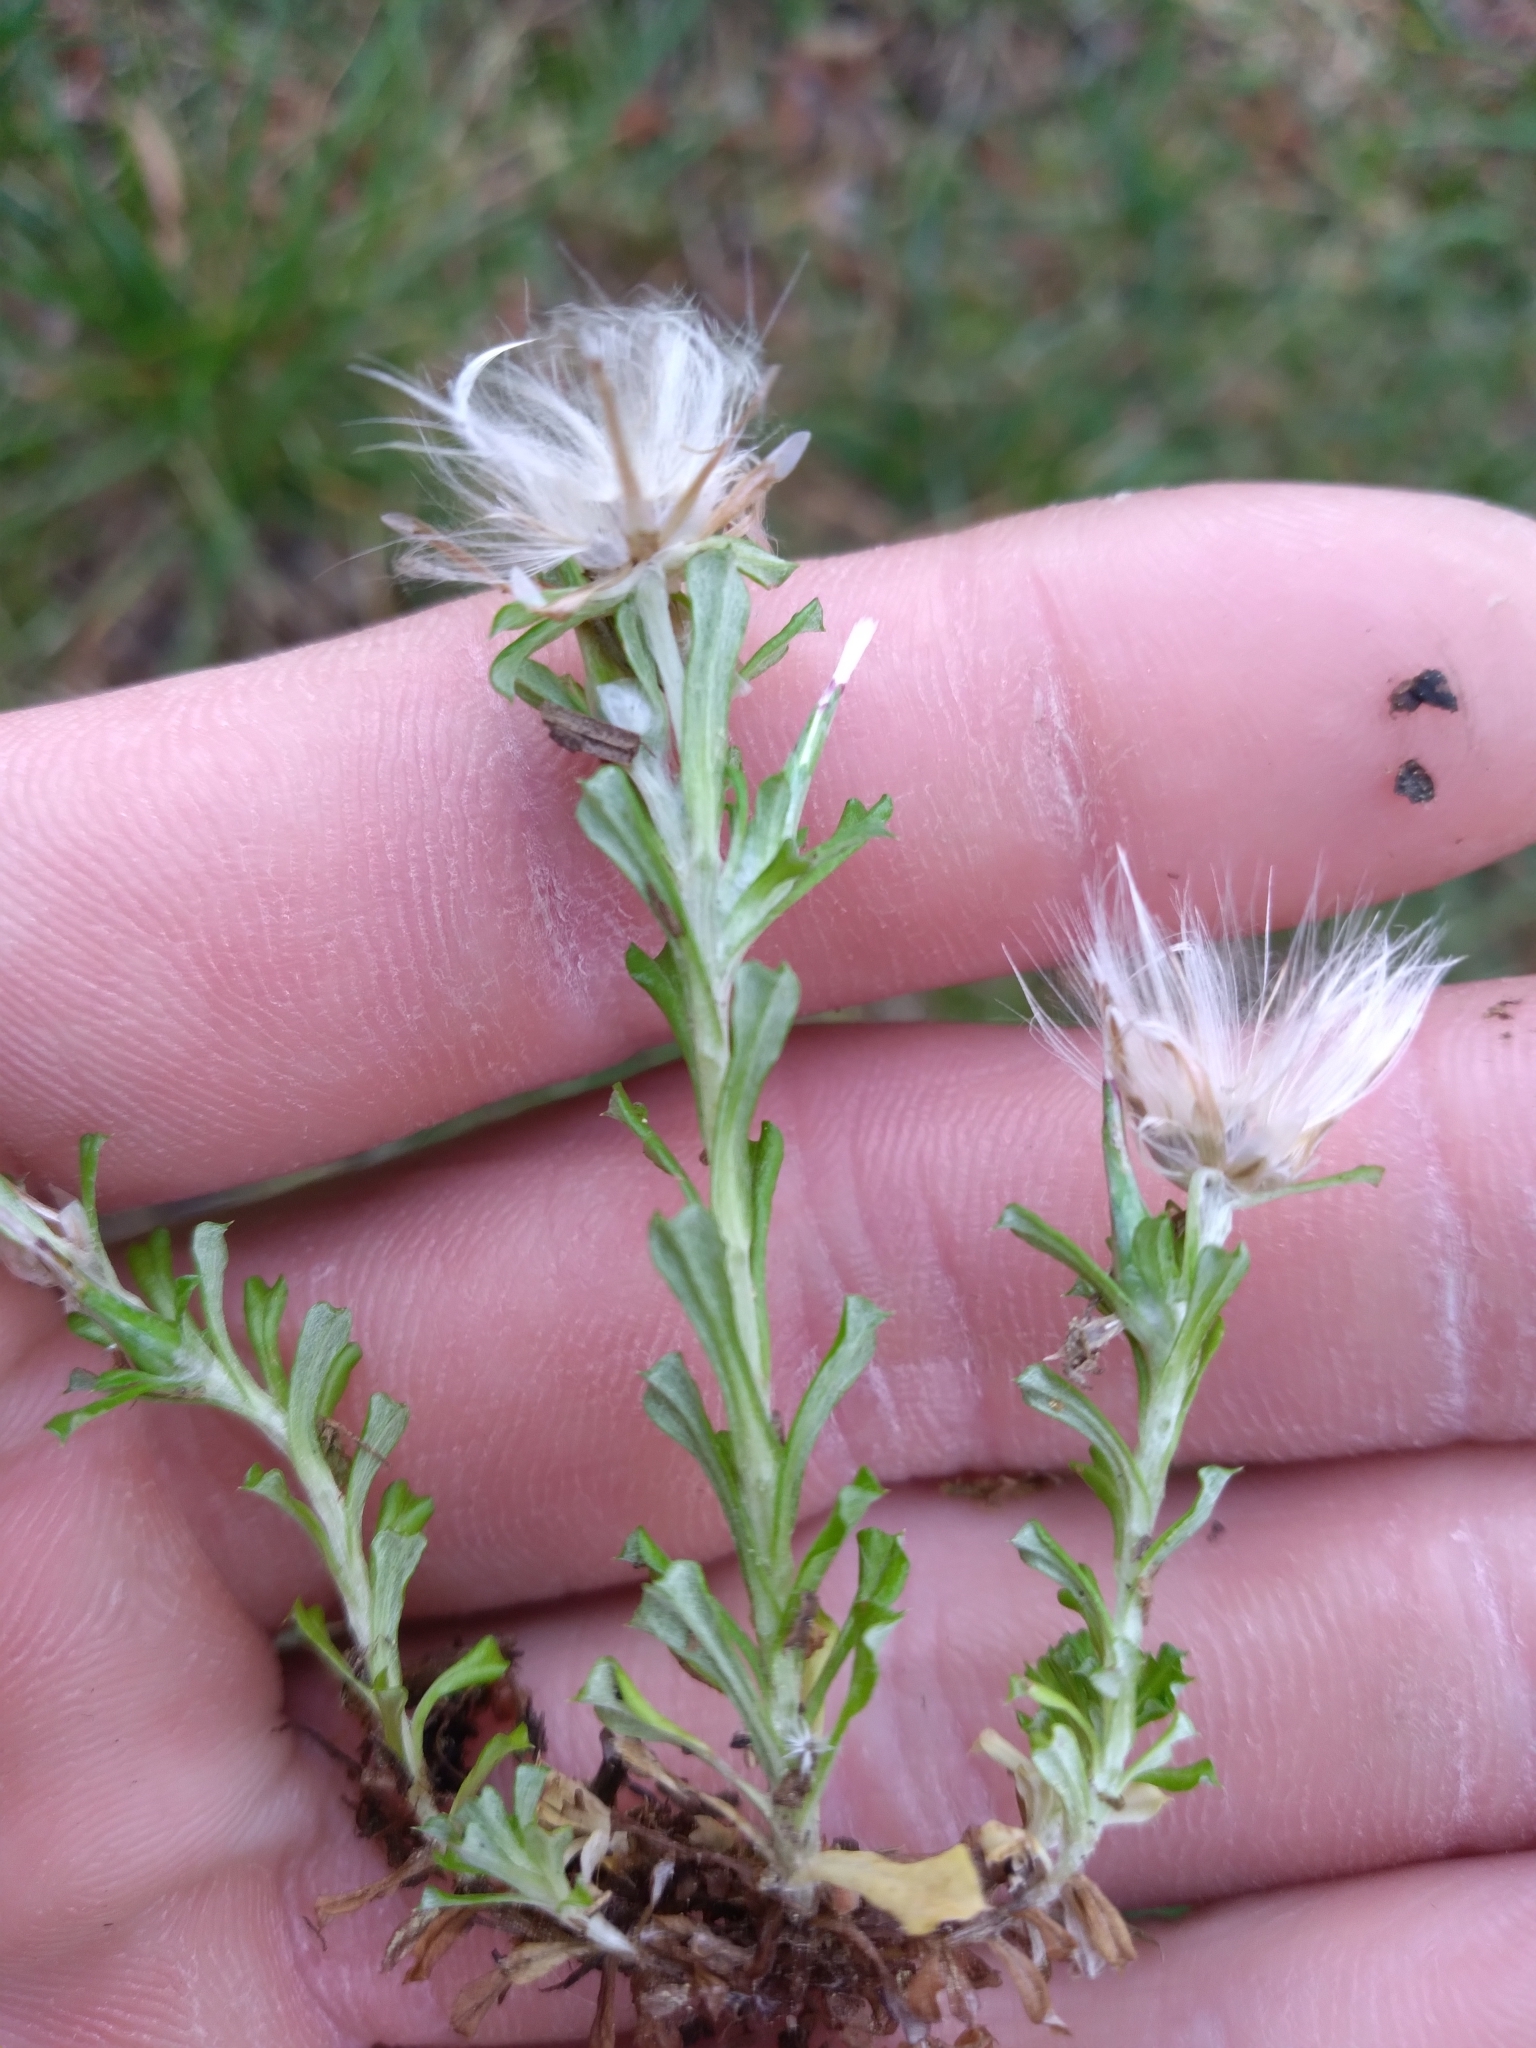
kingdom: Plantae
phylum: Tracheophyta
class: Magnoliopsida
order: Asterales
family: Asteraceae
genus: Facelis
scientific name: Facelis retusa
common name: Annual trampweed
